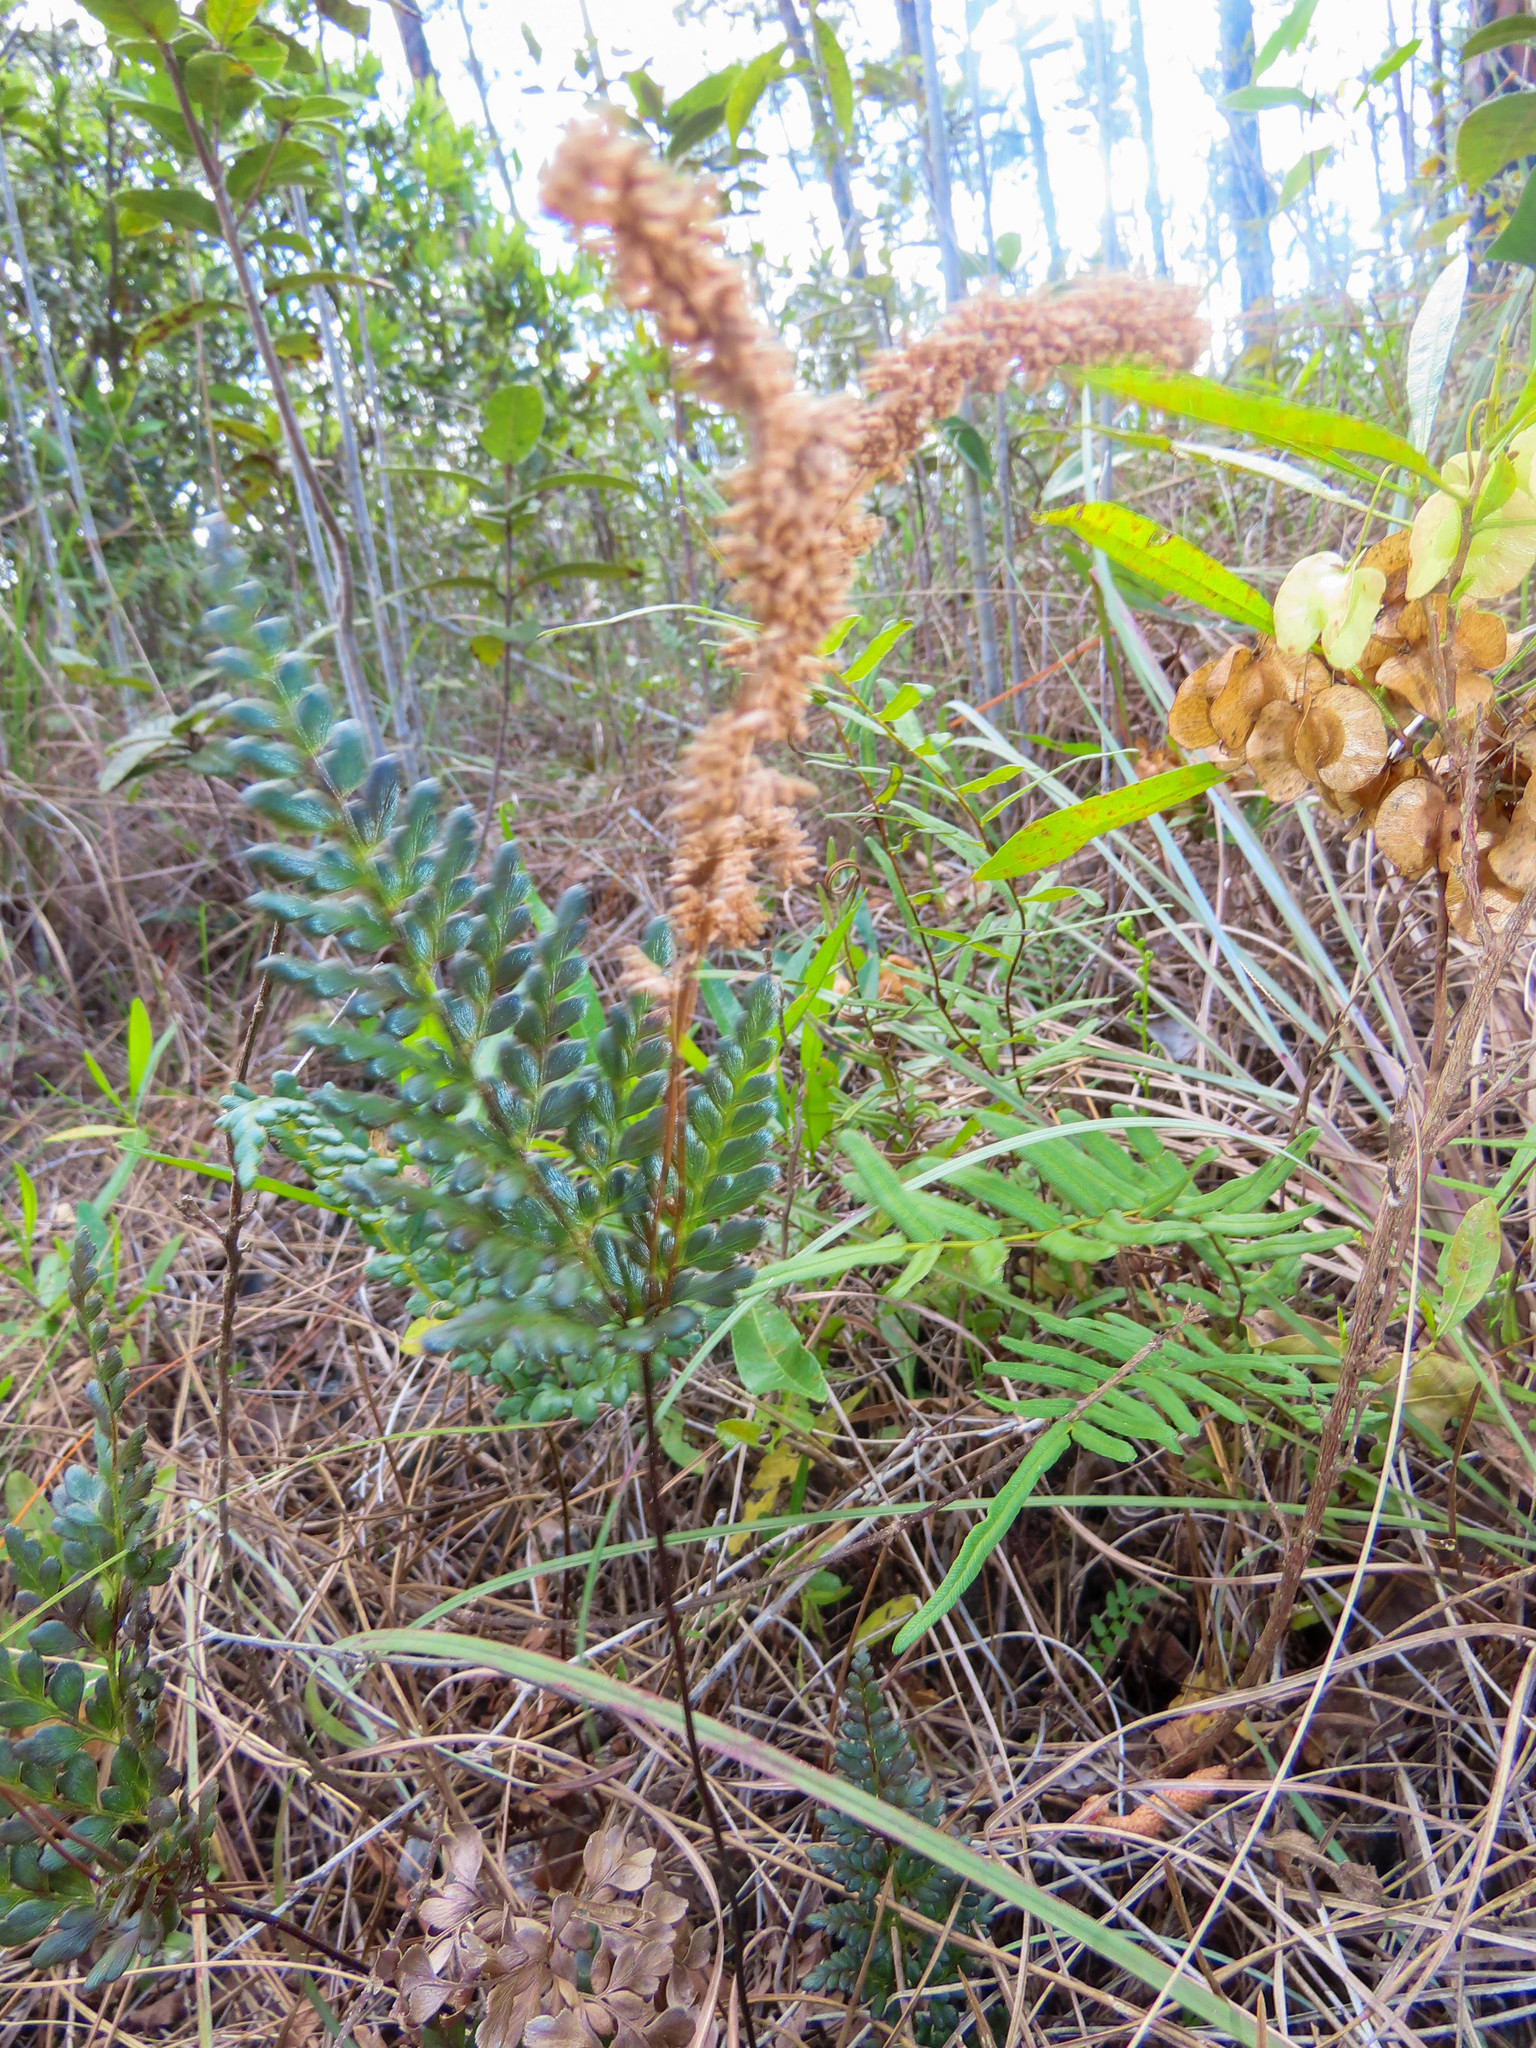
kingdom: Plantae
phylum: Tracheophyta
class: Polypodiopsida
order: Schizaeales
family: Anemiaceae
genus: Anemia
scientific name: Anemia adiantifolia
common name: Pine fern
